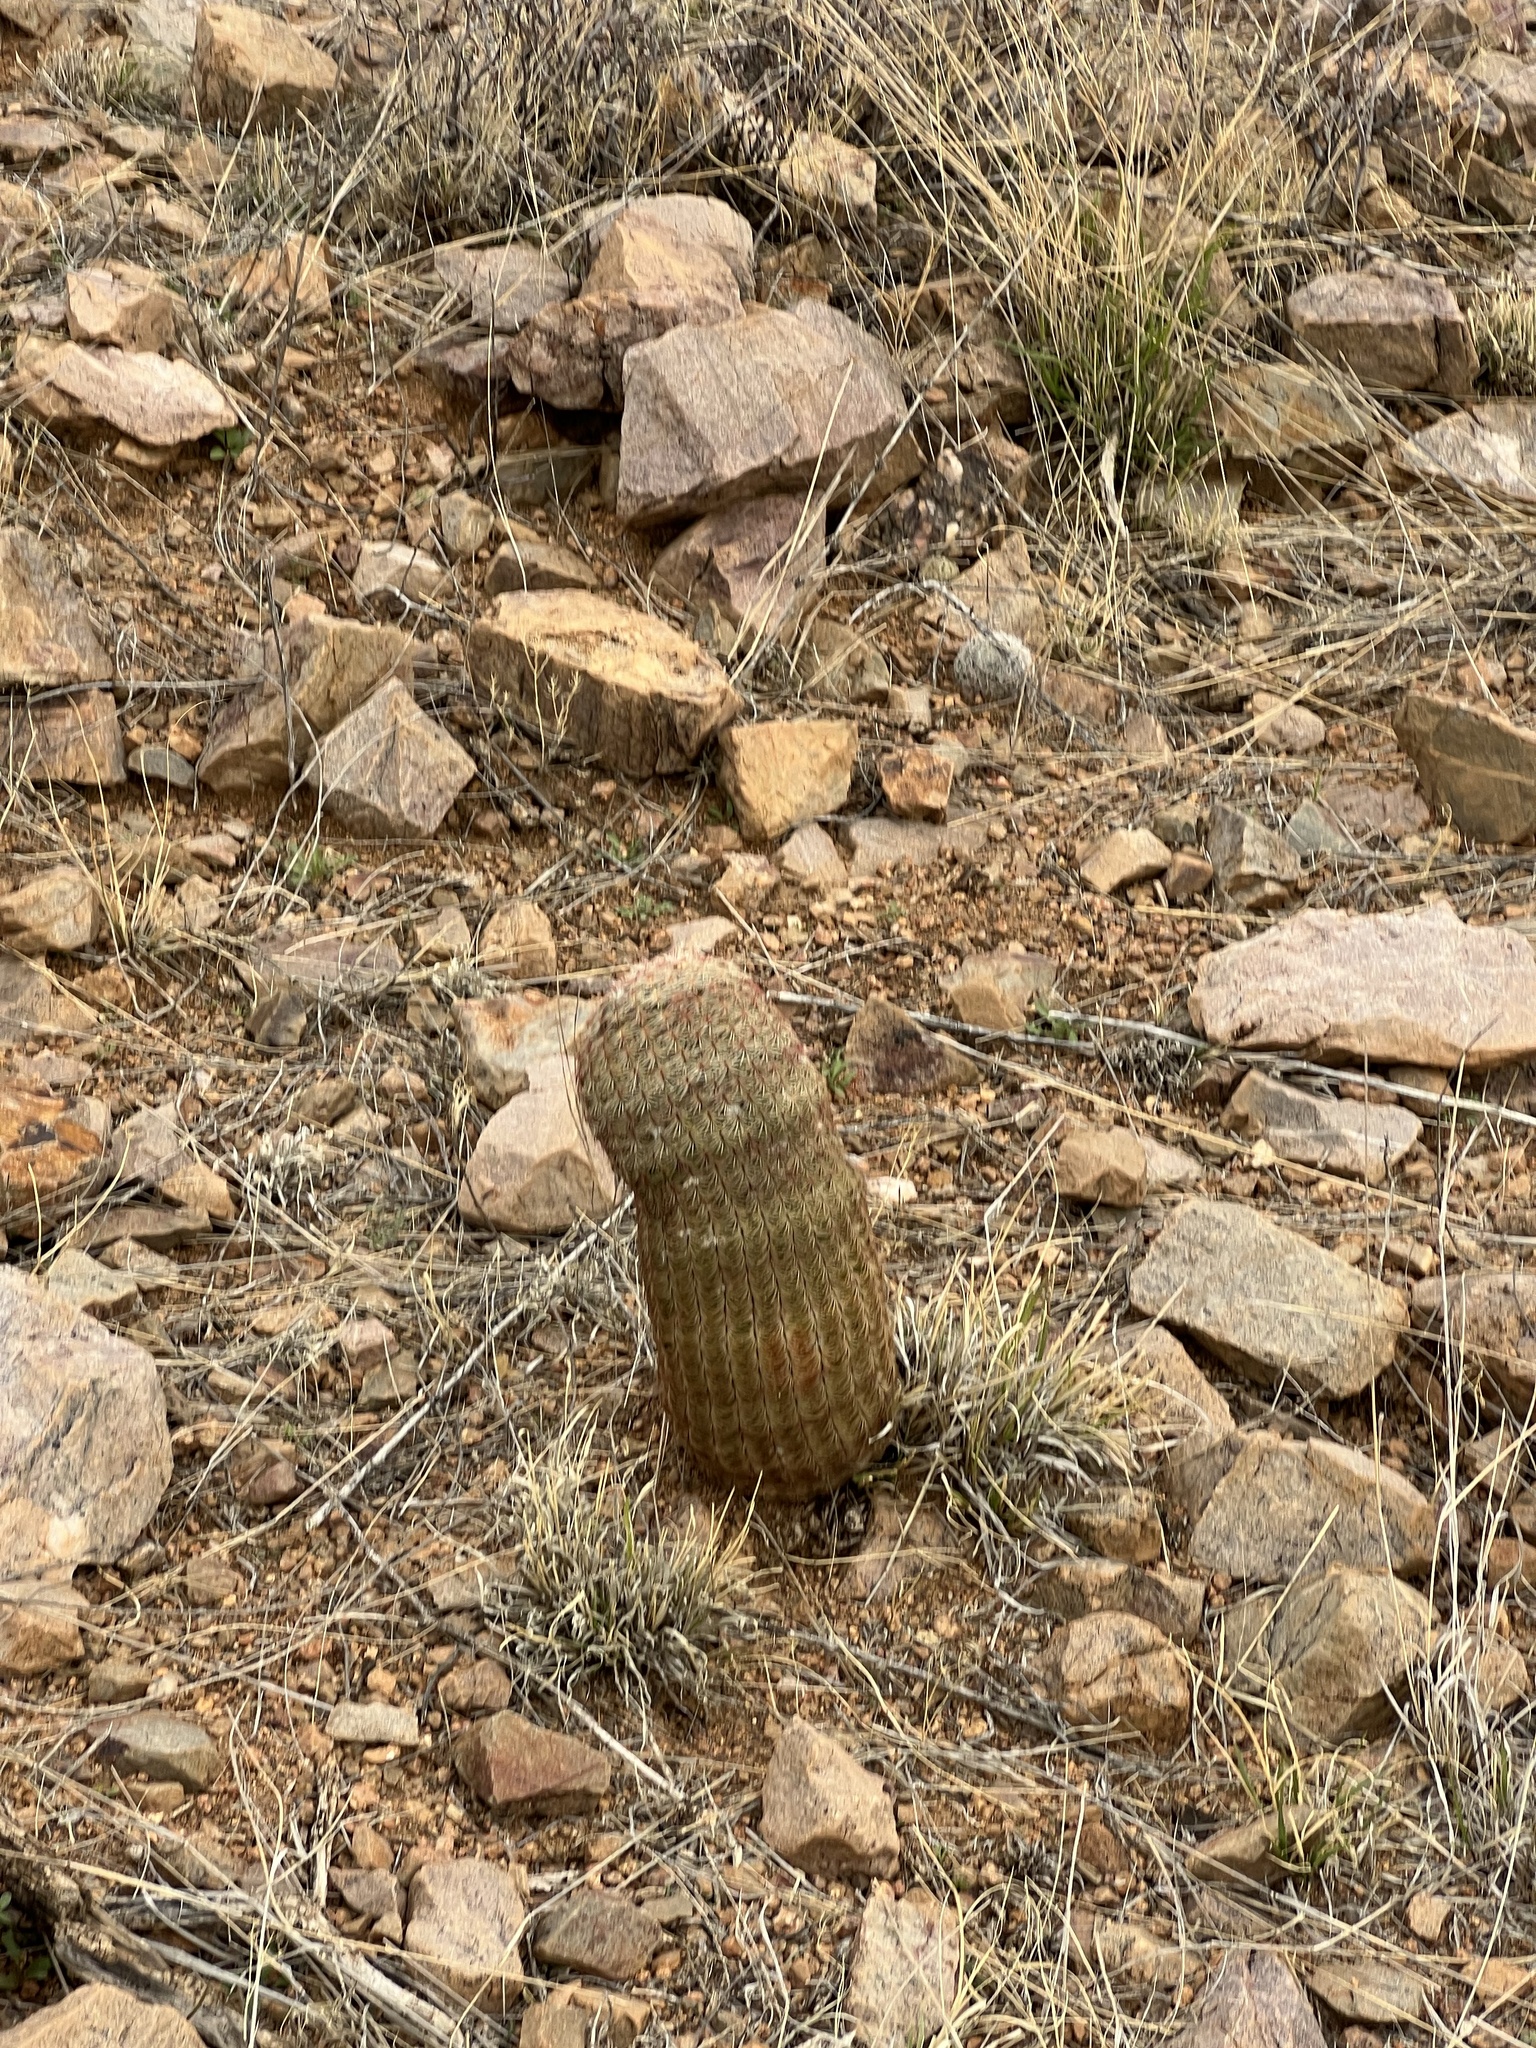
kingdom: Plantae
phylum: Tracheophyta
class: Magnoliopsida
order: Caryophyllales
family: Cactaceae
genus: Echinocereus
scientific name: Echinocereus rigidissimus
